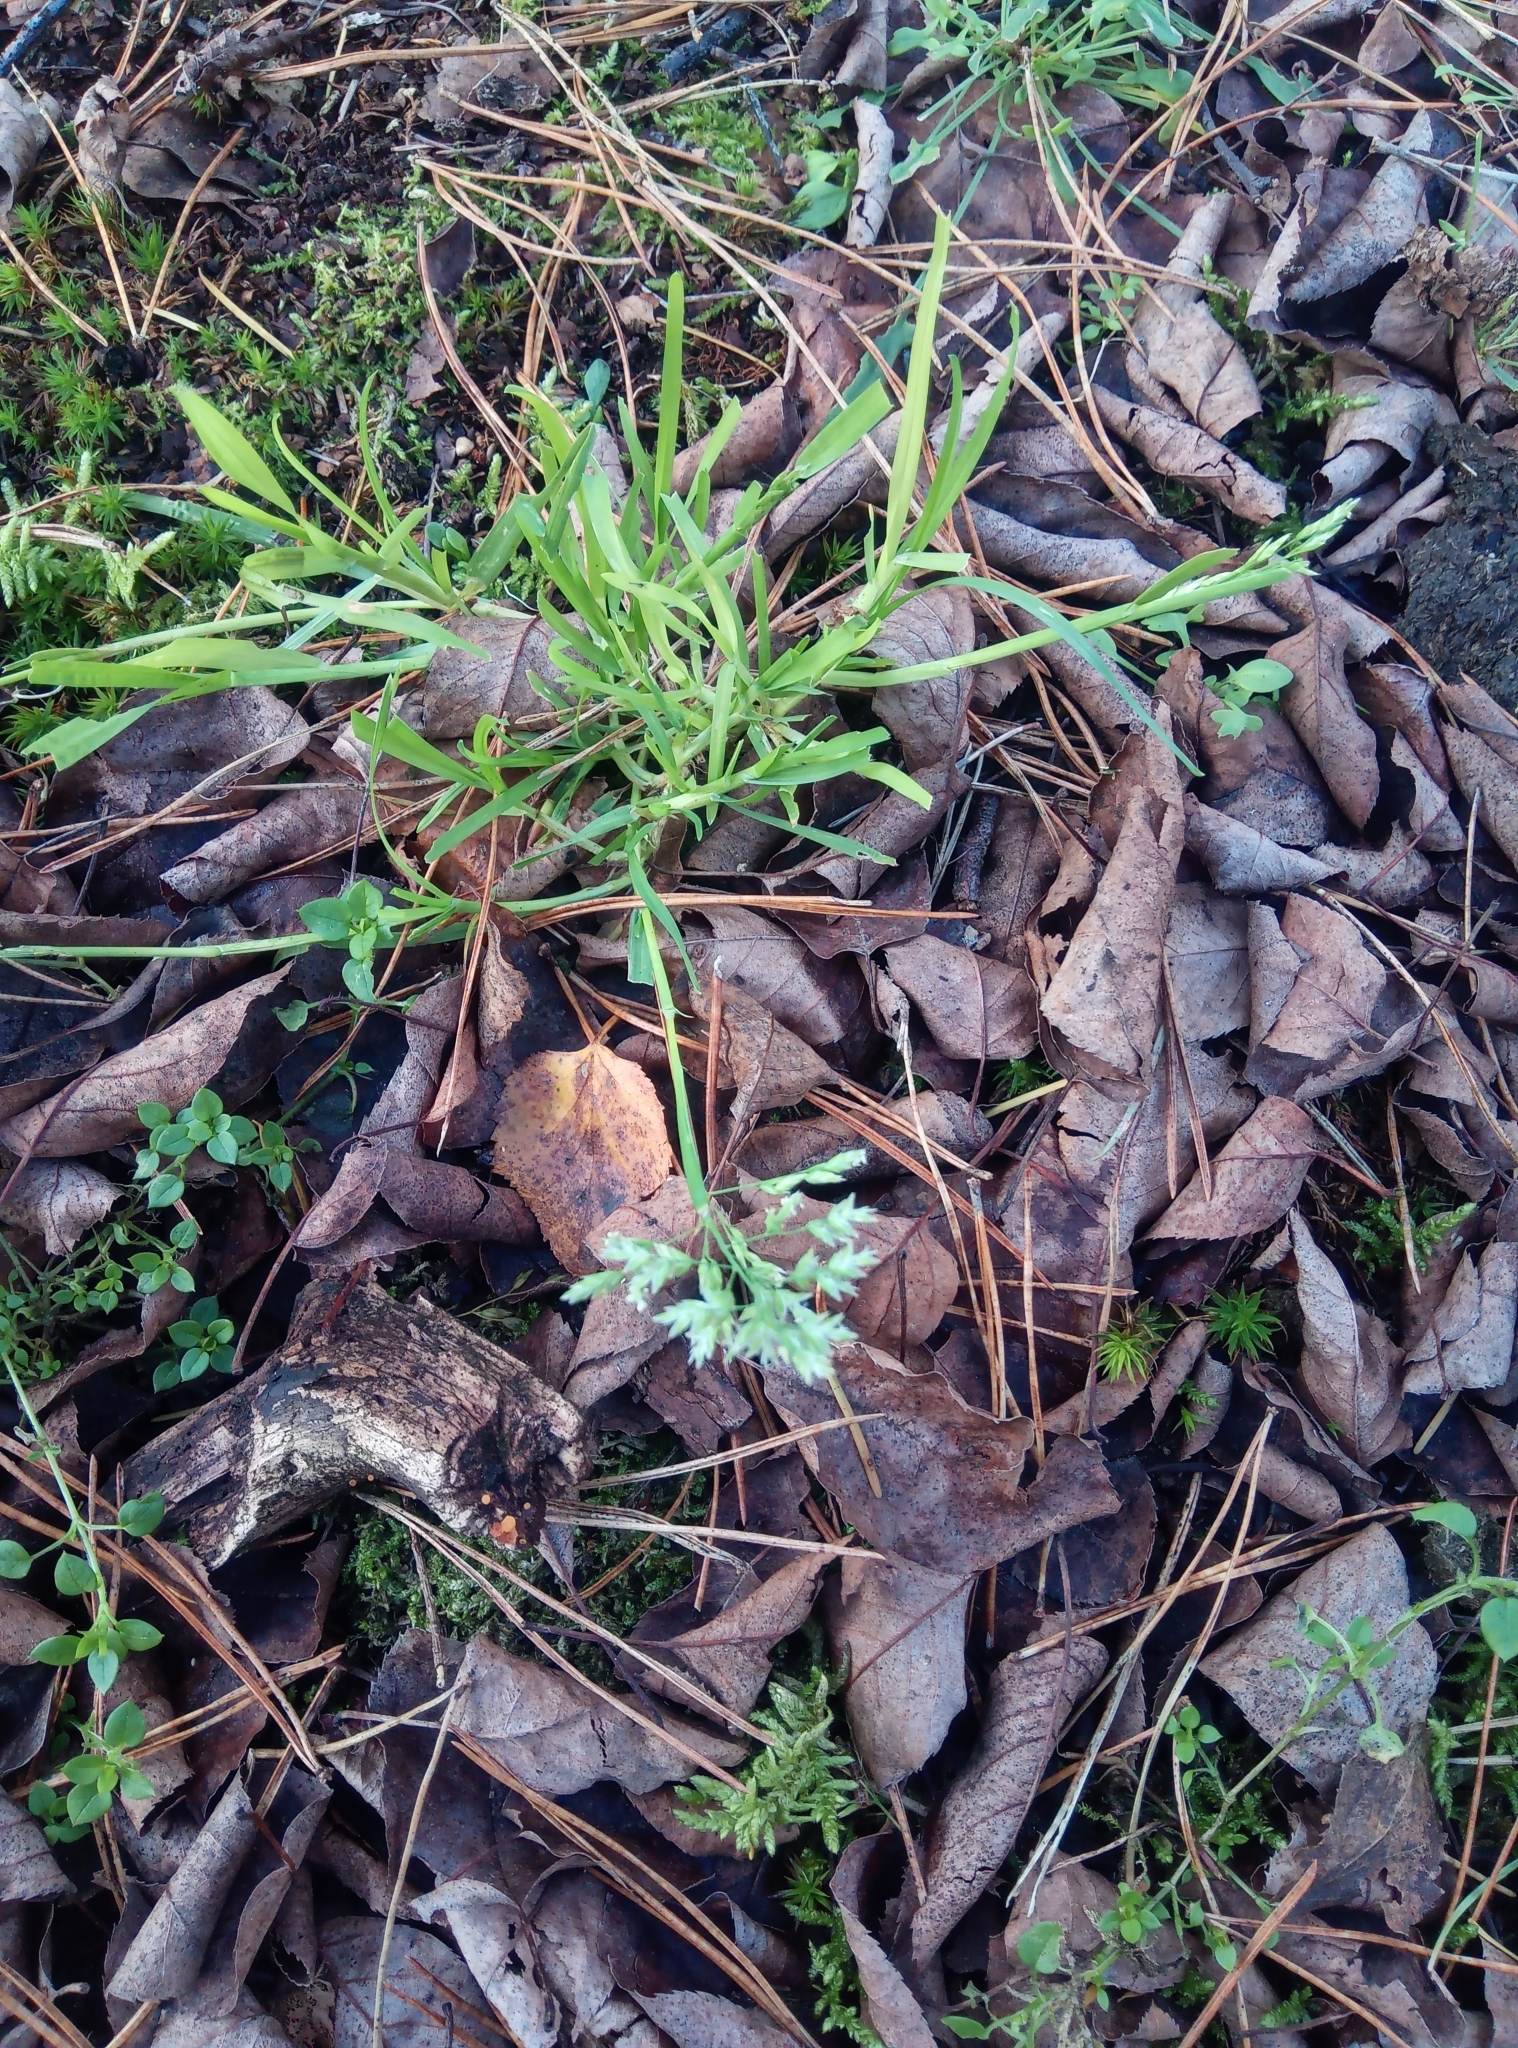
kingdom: Plantae
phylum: Tracheophyta
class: Liliopsida
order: Poales
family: Poaceae
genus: Poa
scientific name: Poa annua
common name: Annual bluegrass
